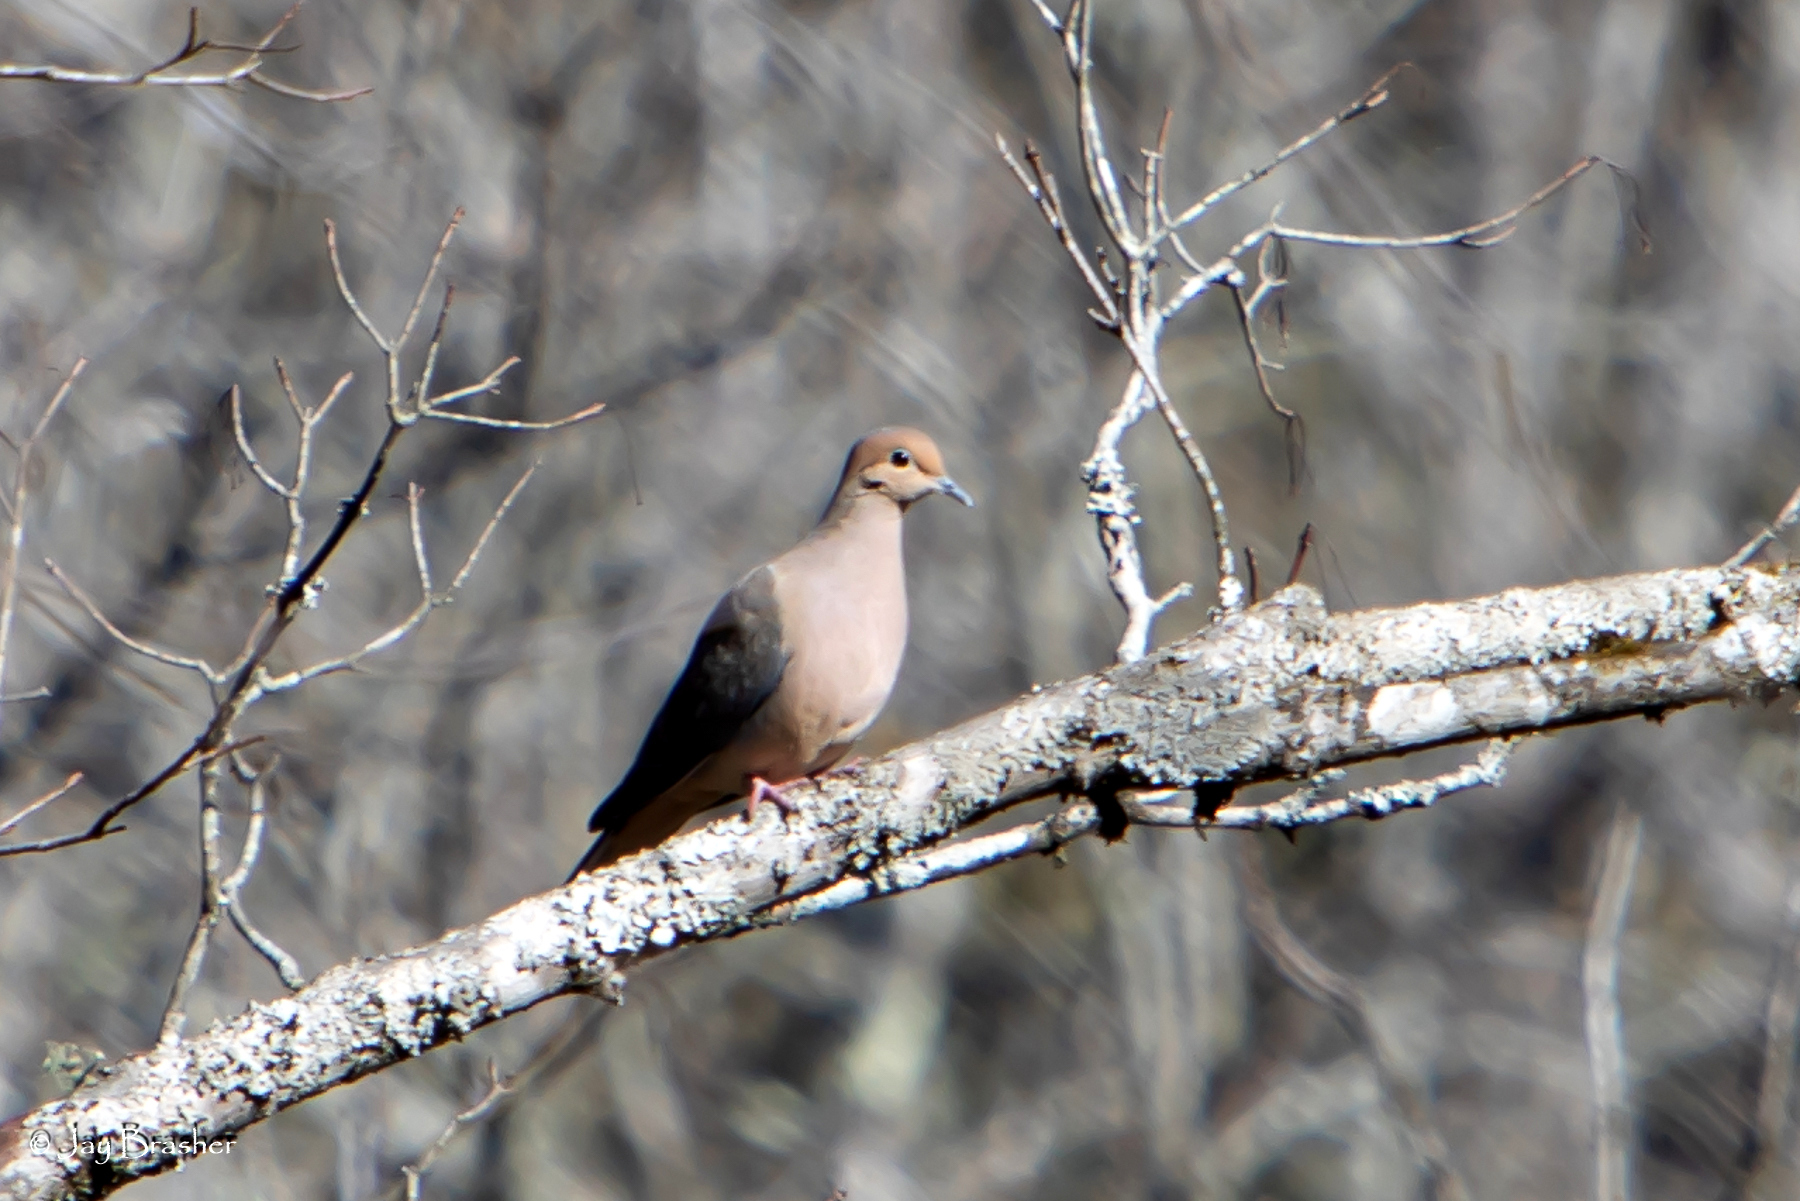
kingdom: Animalia
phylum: Chordata
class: Aves
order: Columbiformes
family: Columbidae
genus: Zenaida
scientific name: Zenaida macroura
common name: Mourning dove
